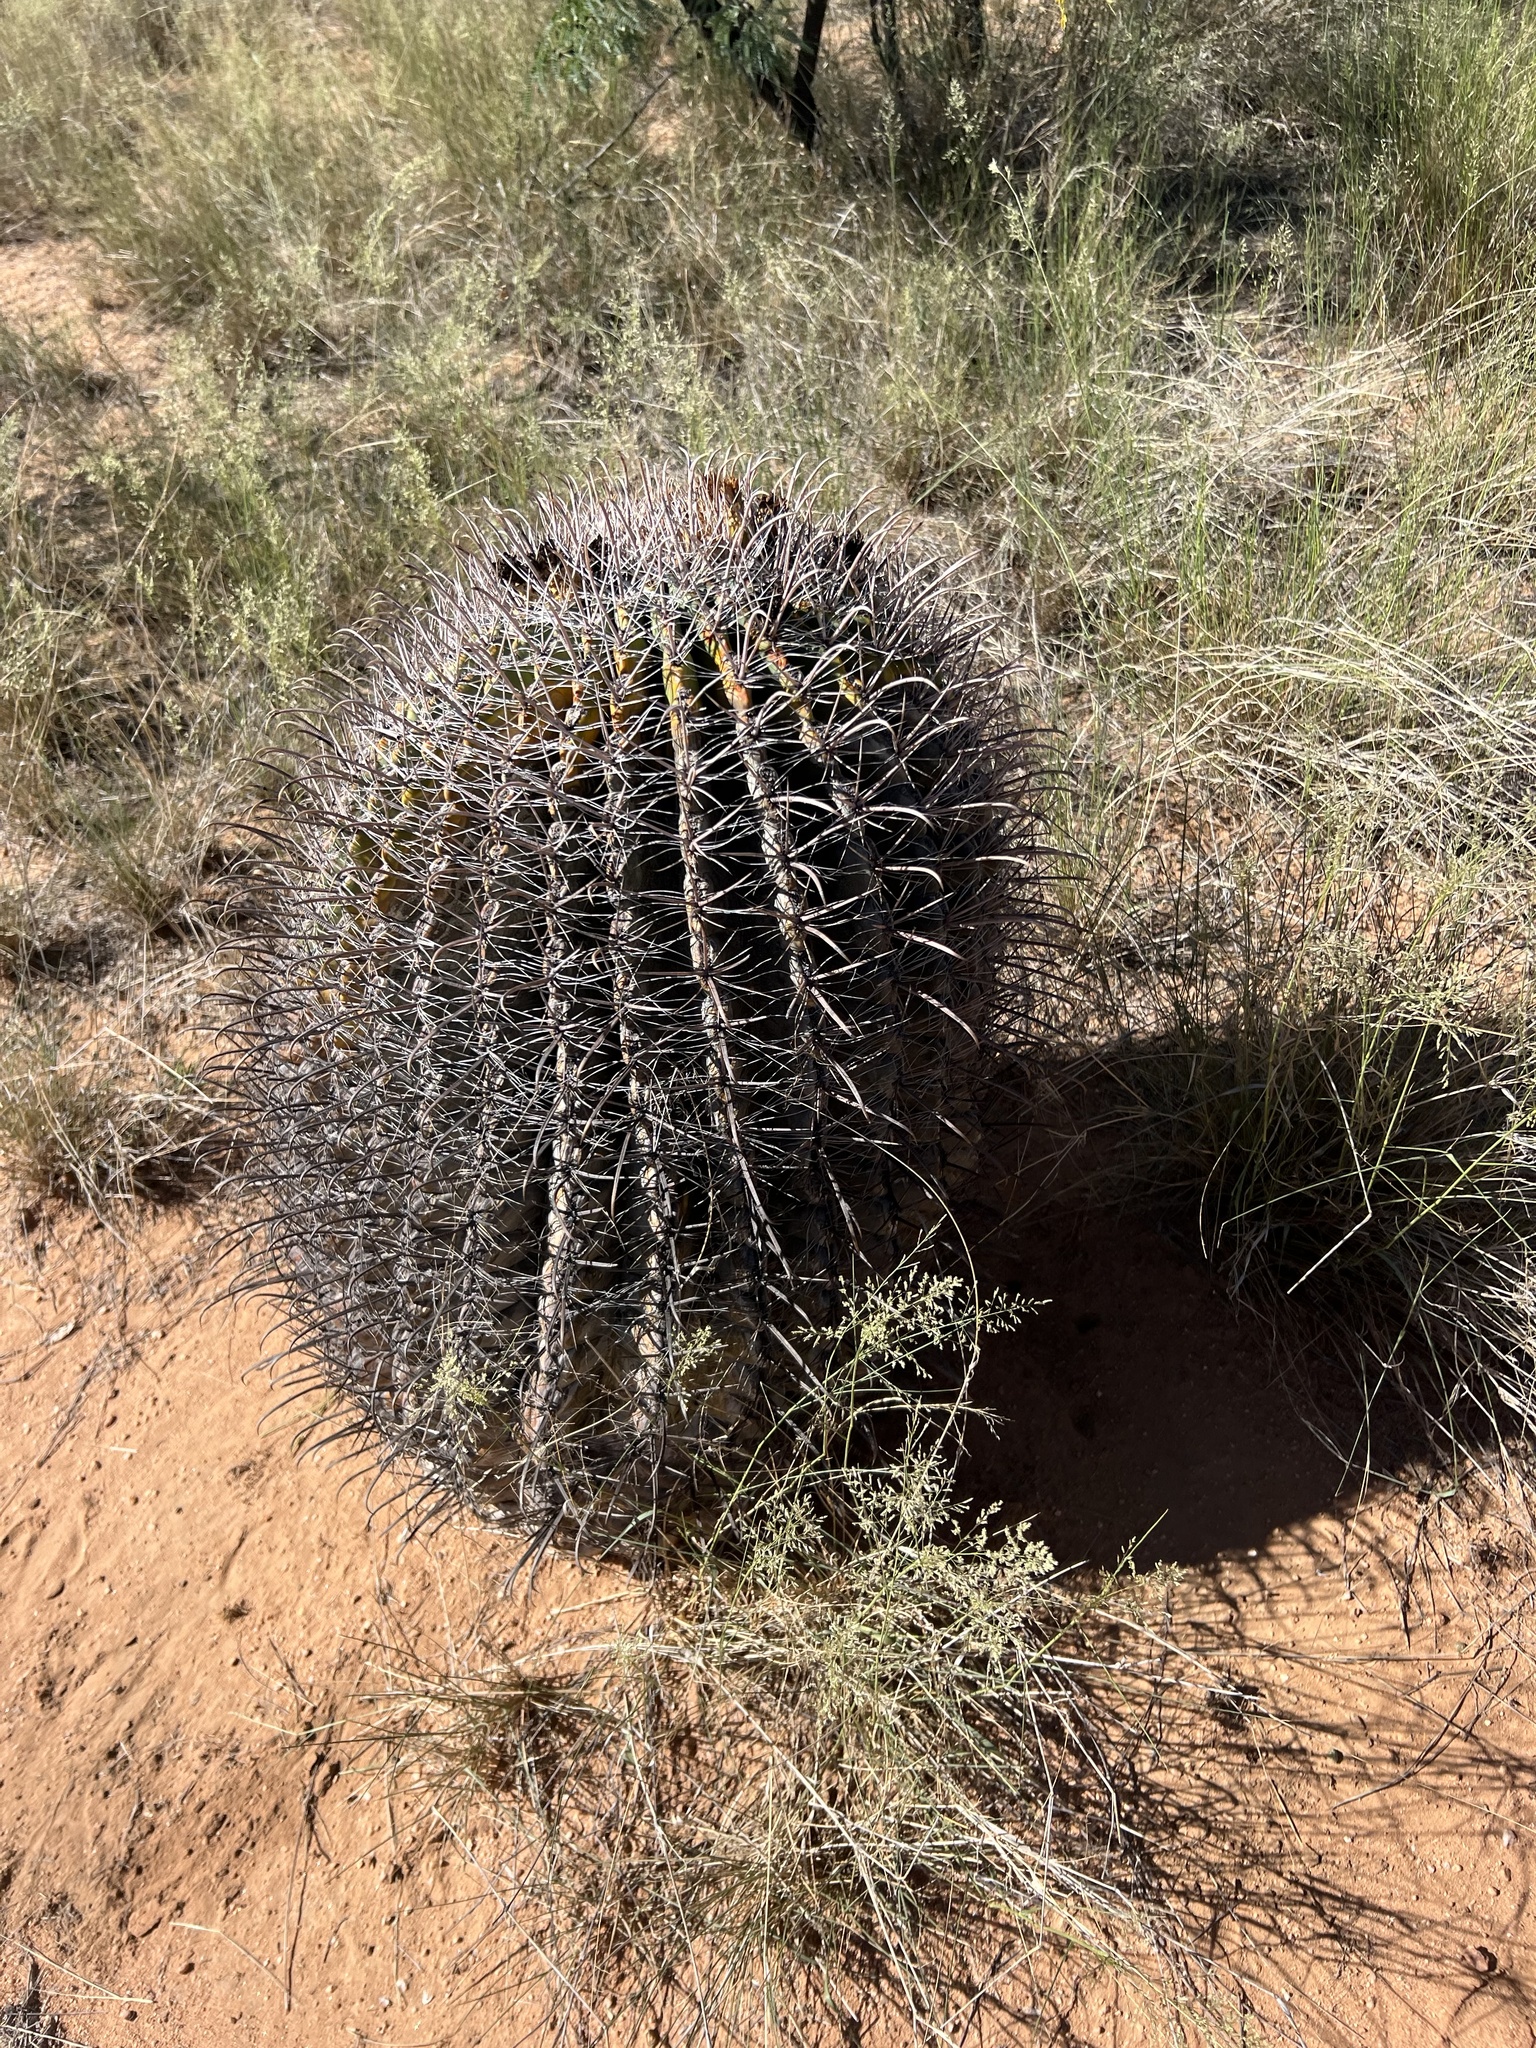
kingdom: Plantae
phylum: Tracheophyta
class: Magnoliopsida
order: Caryophyllales
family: Cactaceae
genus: Ferocactus
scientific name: Ferocactus wislizeni
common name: Candy barrel cactus
